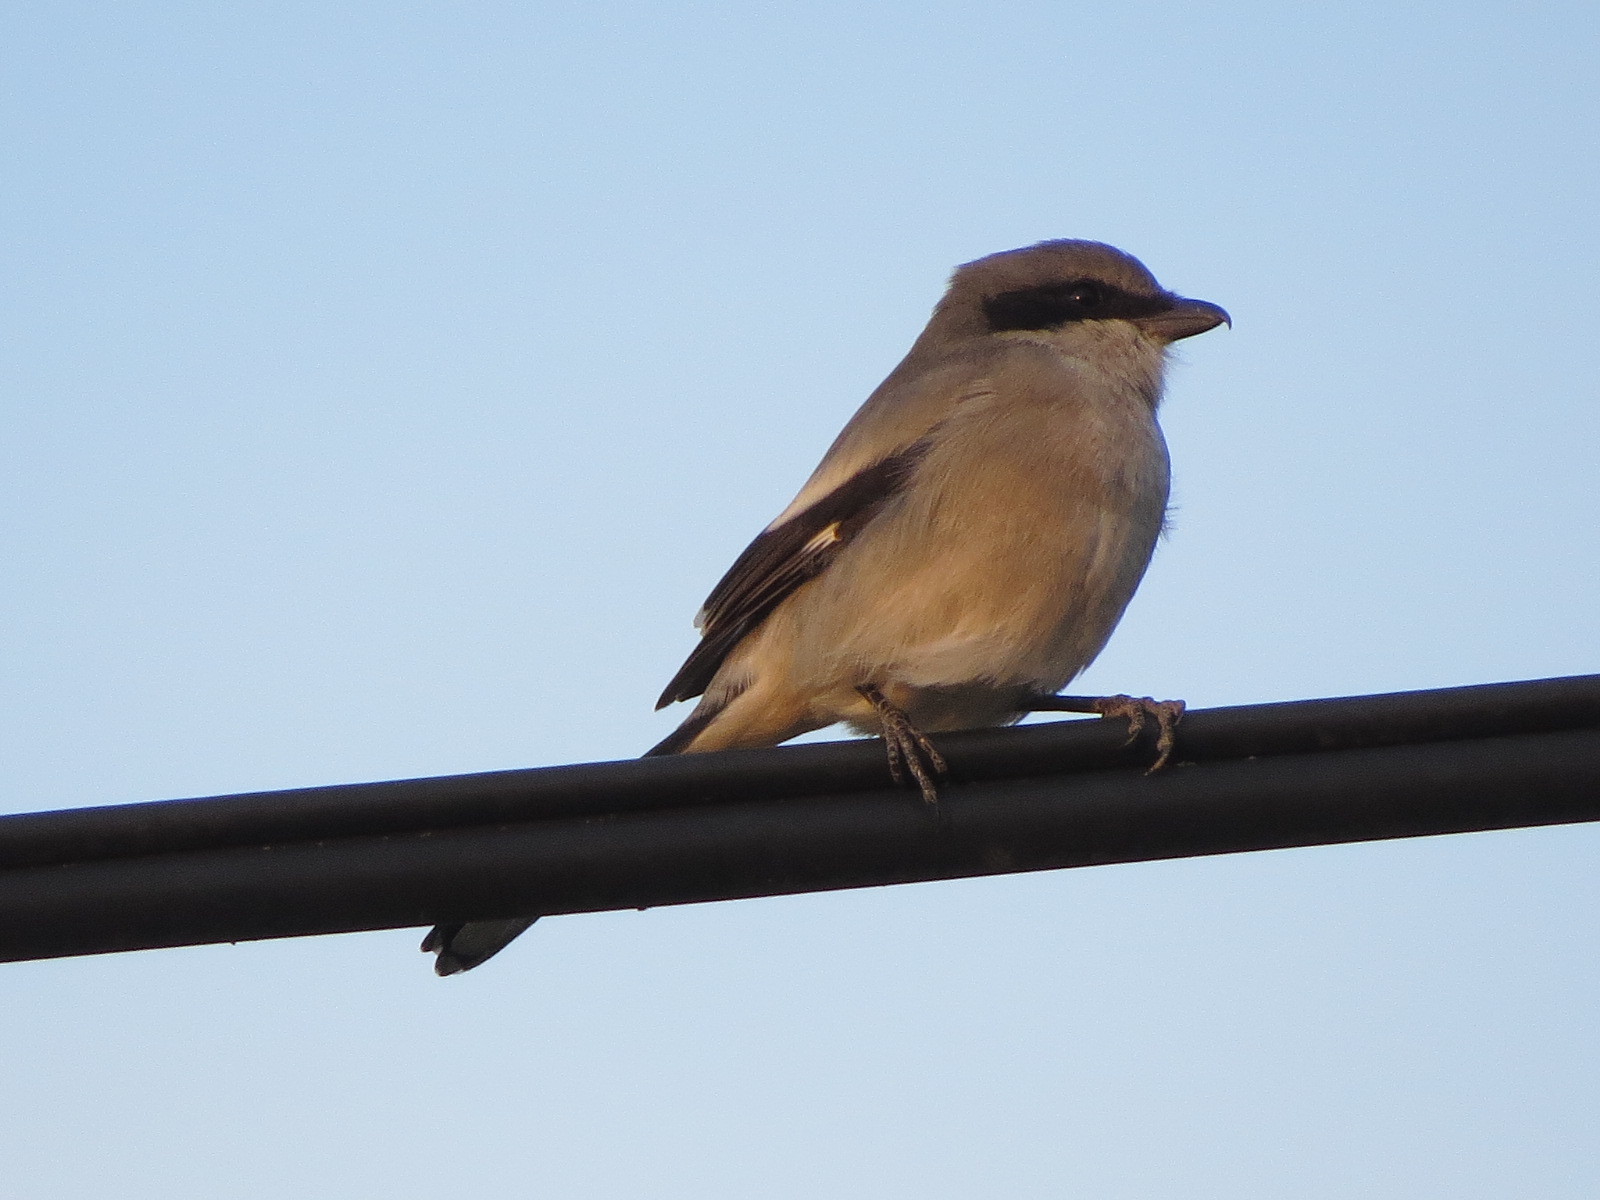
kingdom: Animalia
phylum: Chordata
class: Aves
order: Passeriformes
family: Laniidae
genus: Lanius
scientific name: Lanius ludovicianus
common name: Loggerhead shrike
